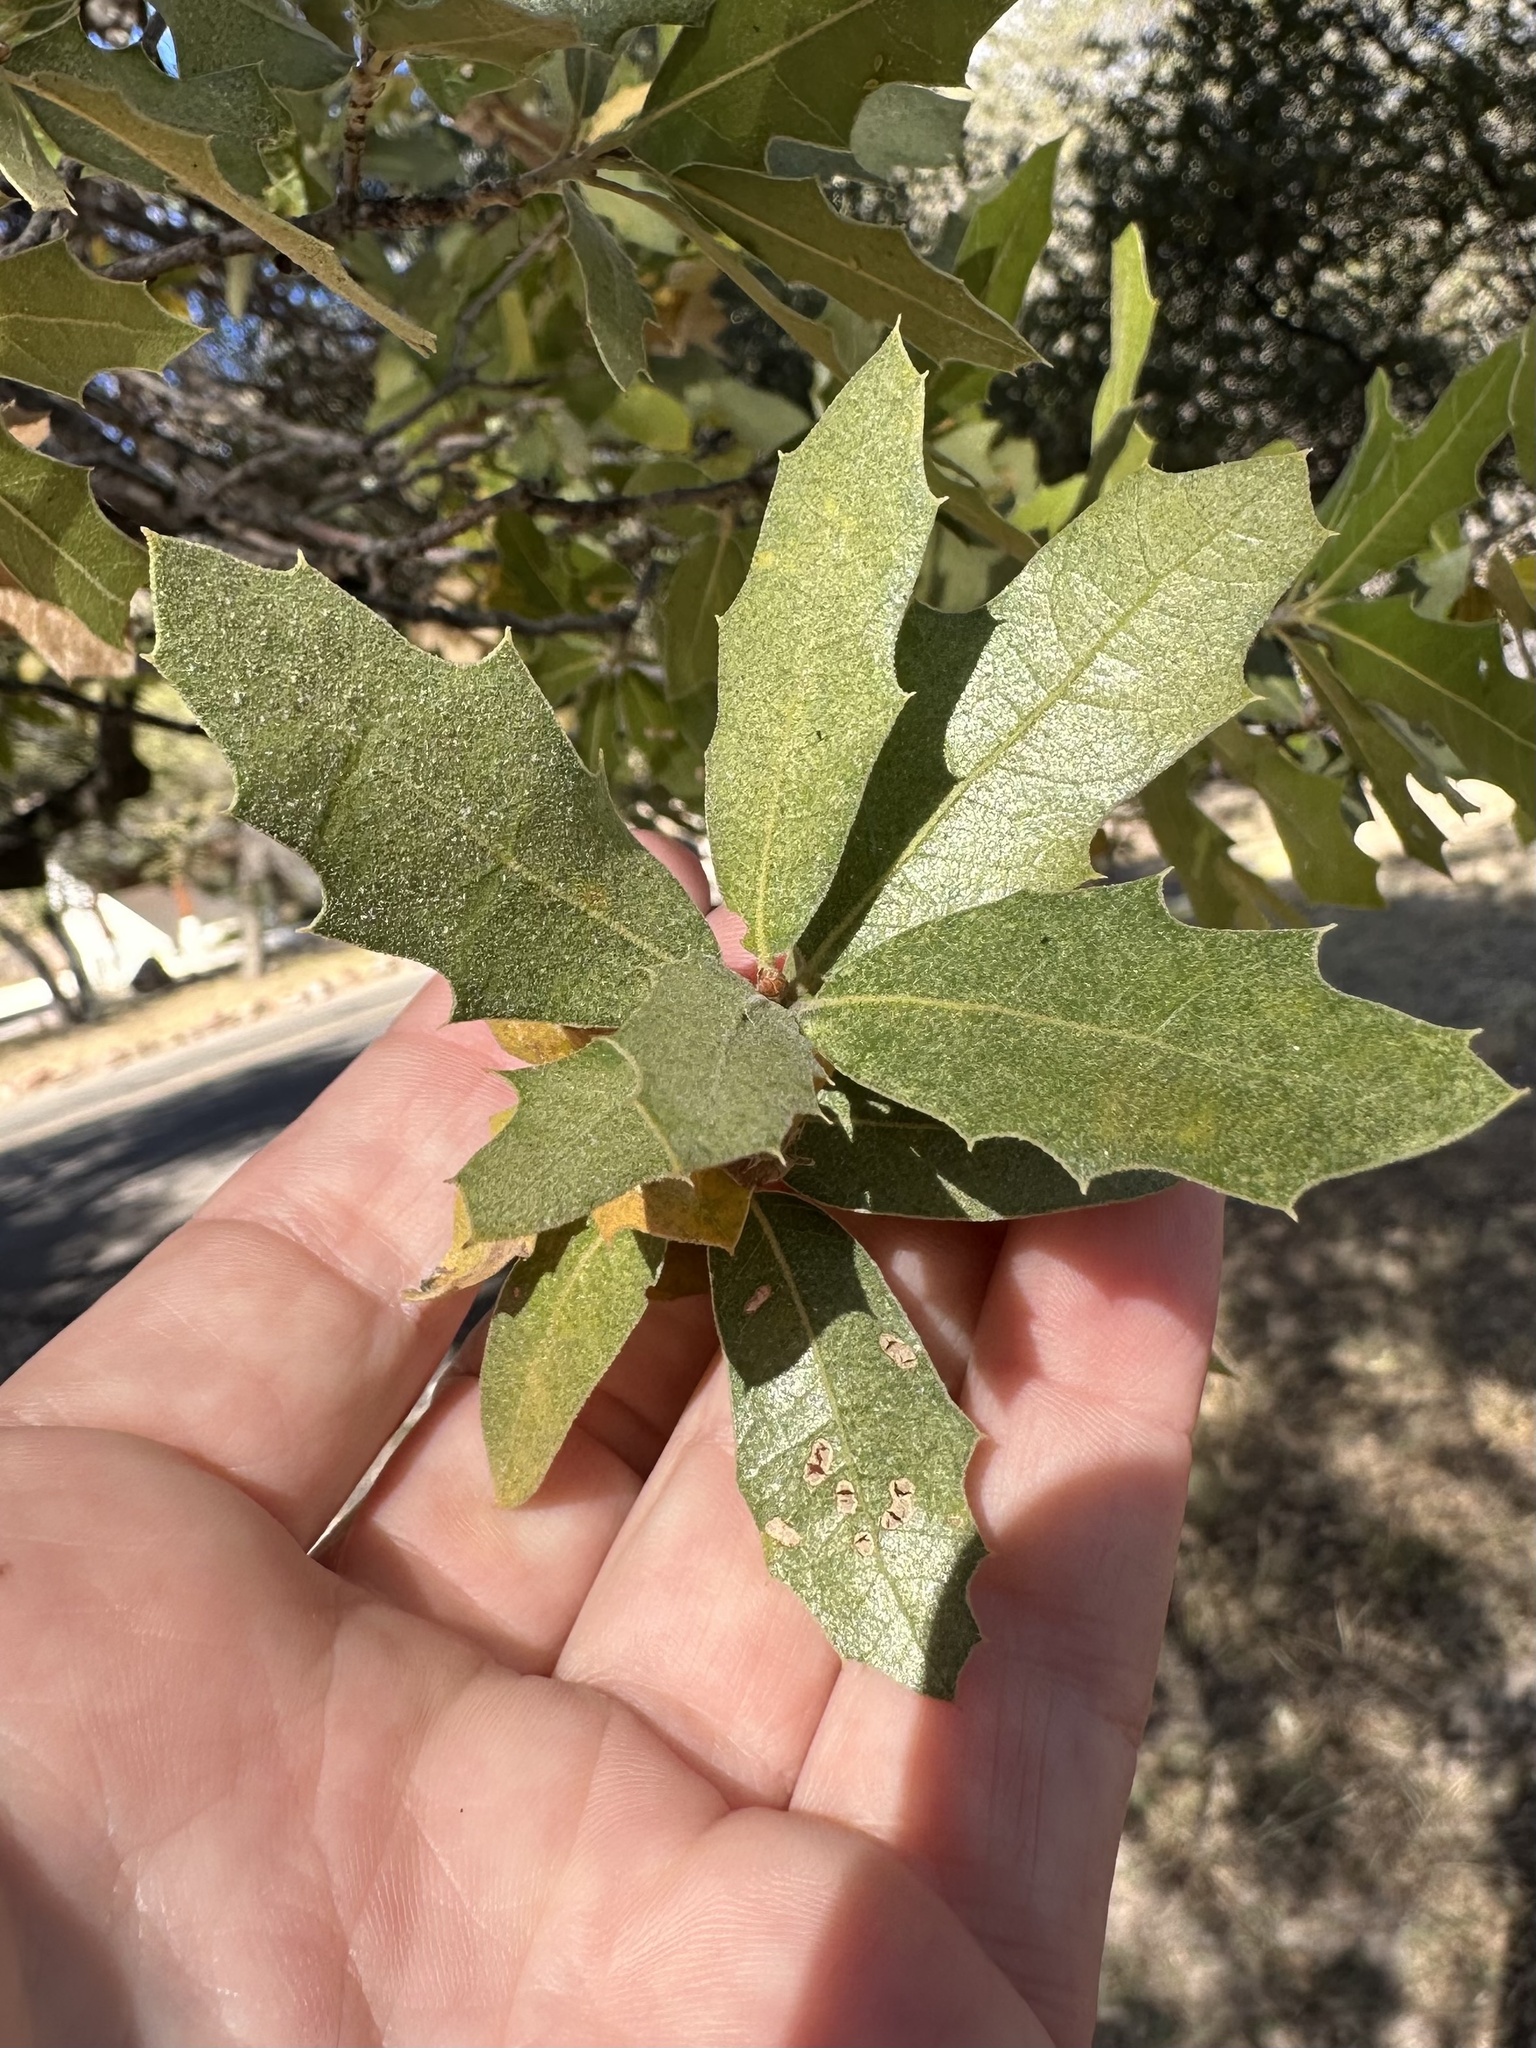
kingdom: Plantae
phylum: Tracheophyta
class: Magnoliopsida
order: Fagales
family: Fagaceae
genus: Quercus
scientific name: Quercus emoryi
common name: Emory oak
